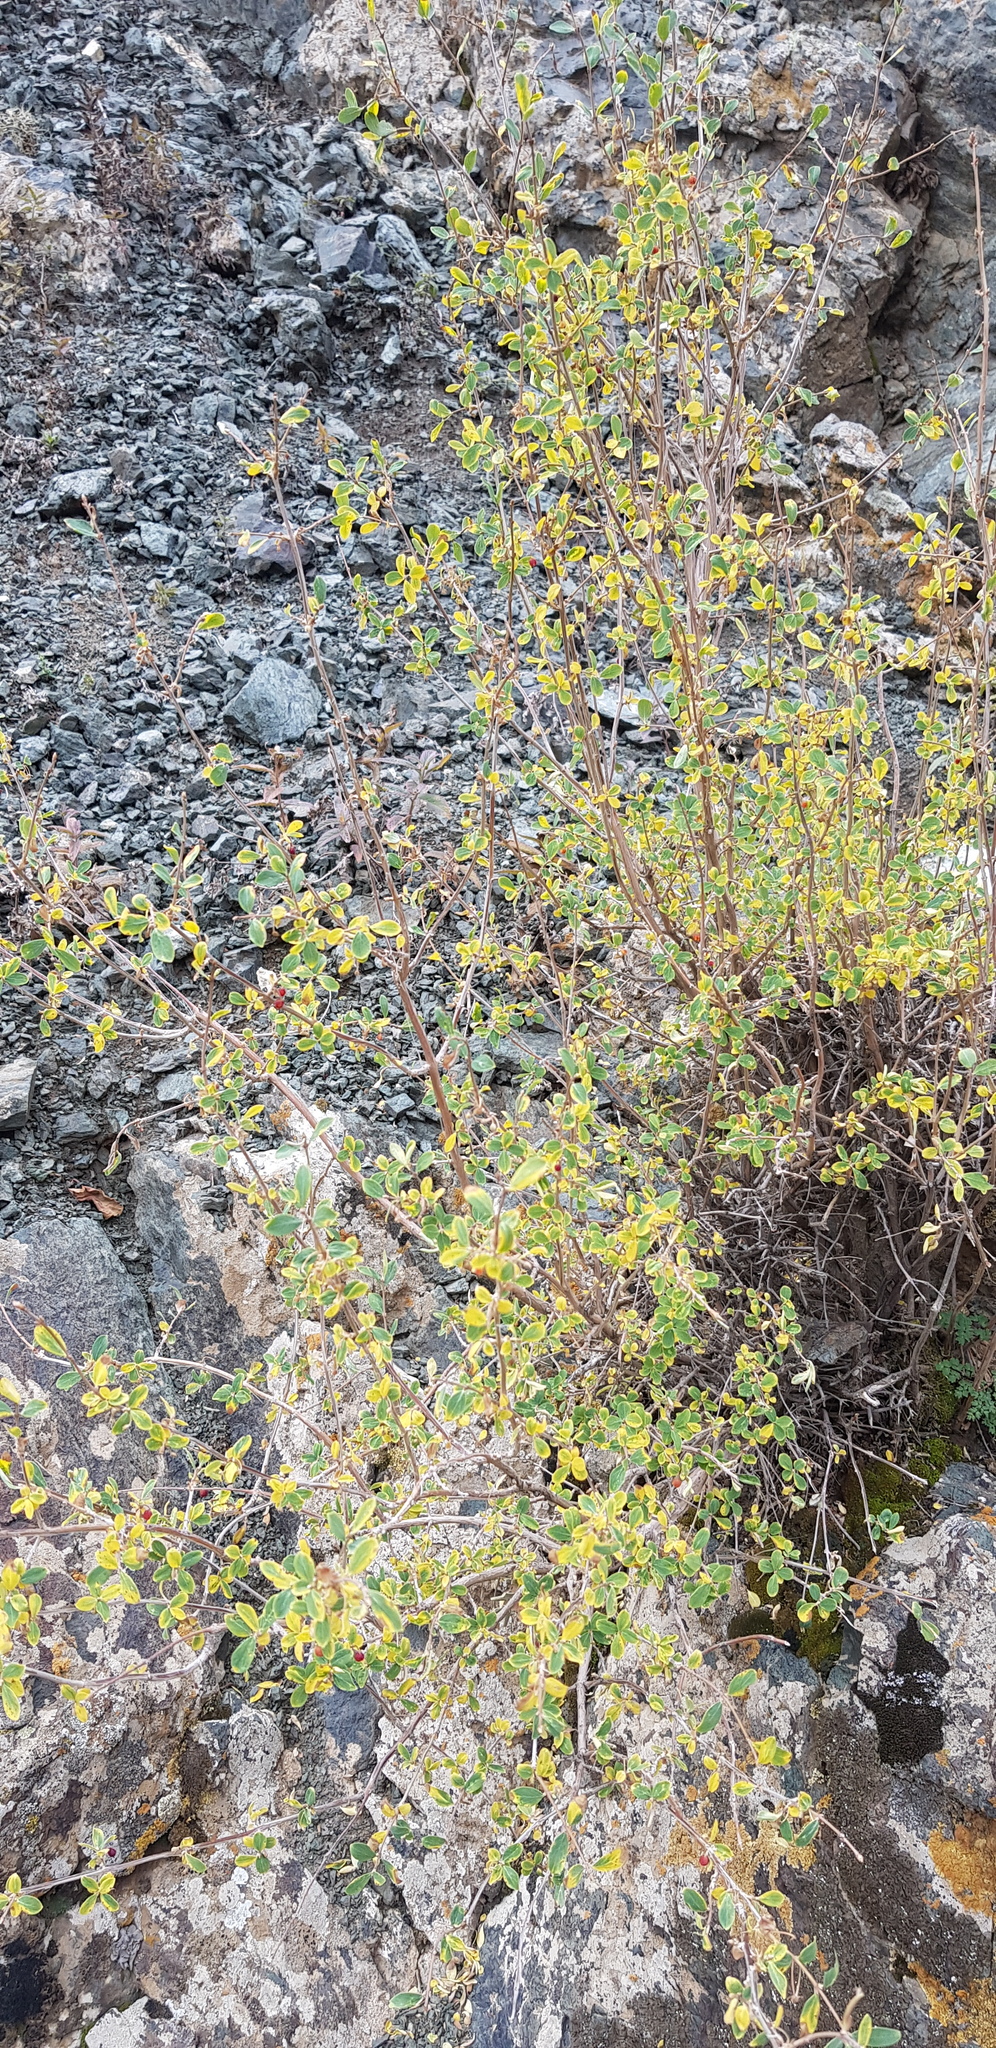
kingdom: Plantae
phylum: Tracheophyta
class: Magnoliopsida
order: Dipsacales
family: Caprifoliaceae
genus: Lonicera
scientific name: Lonicera microphylla
